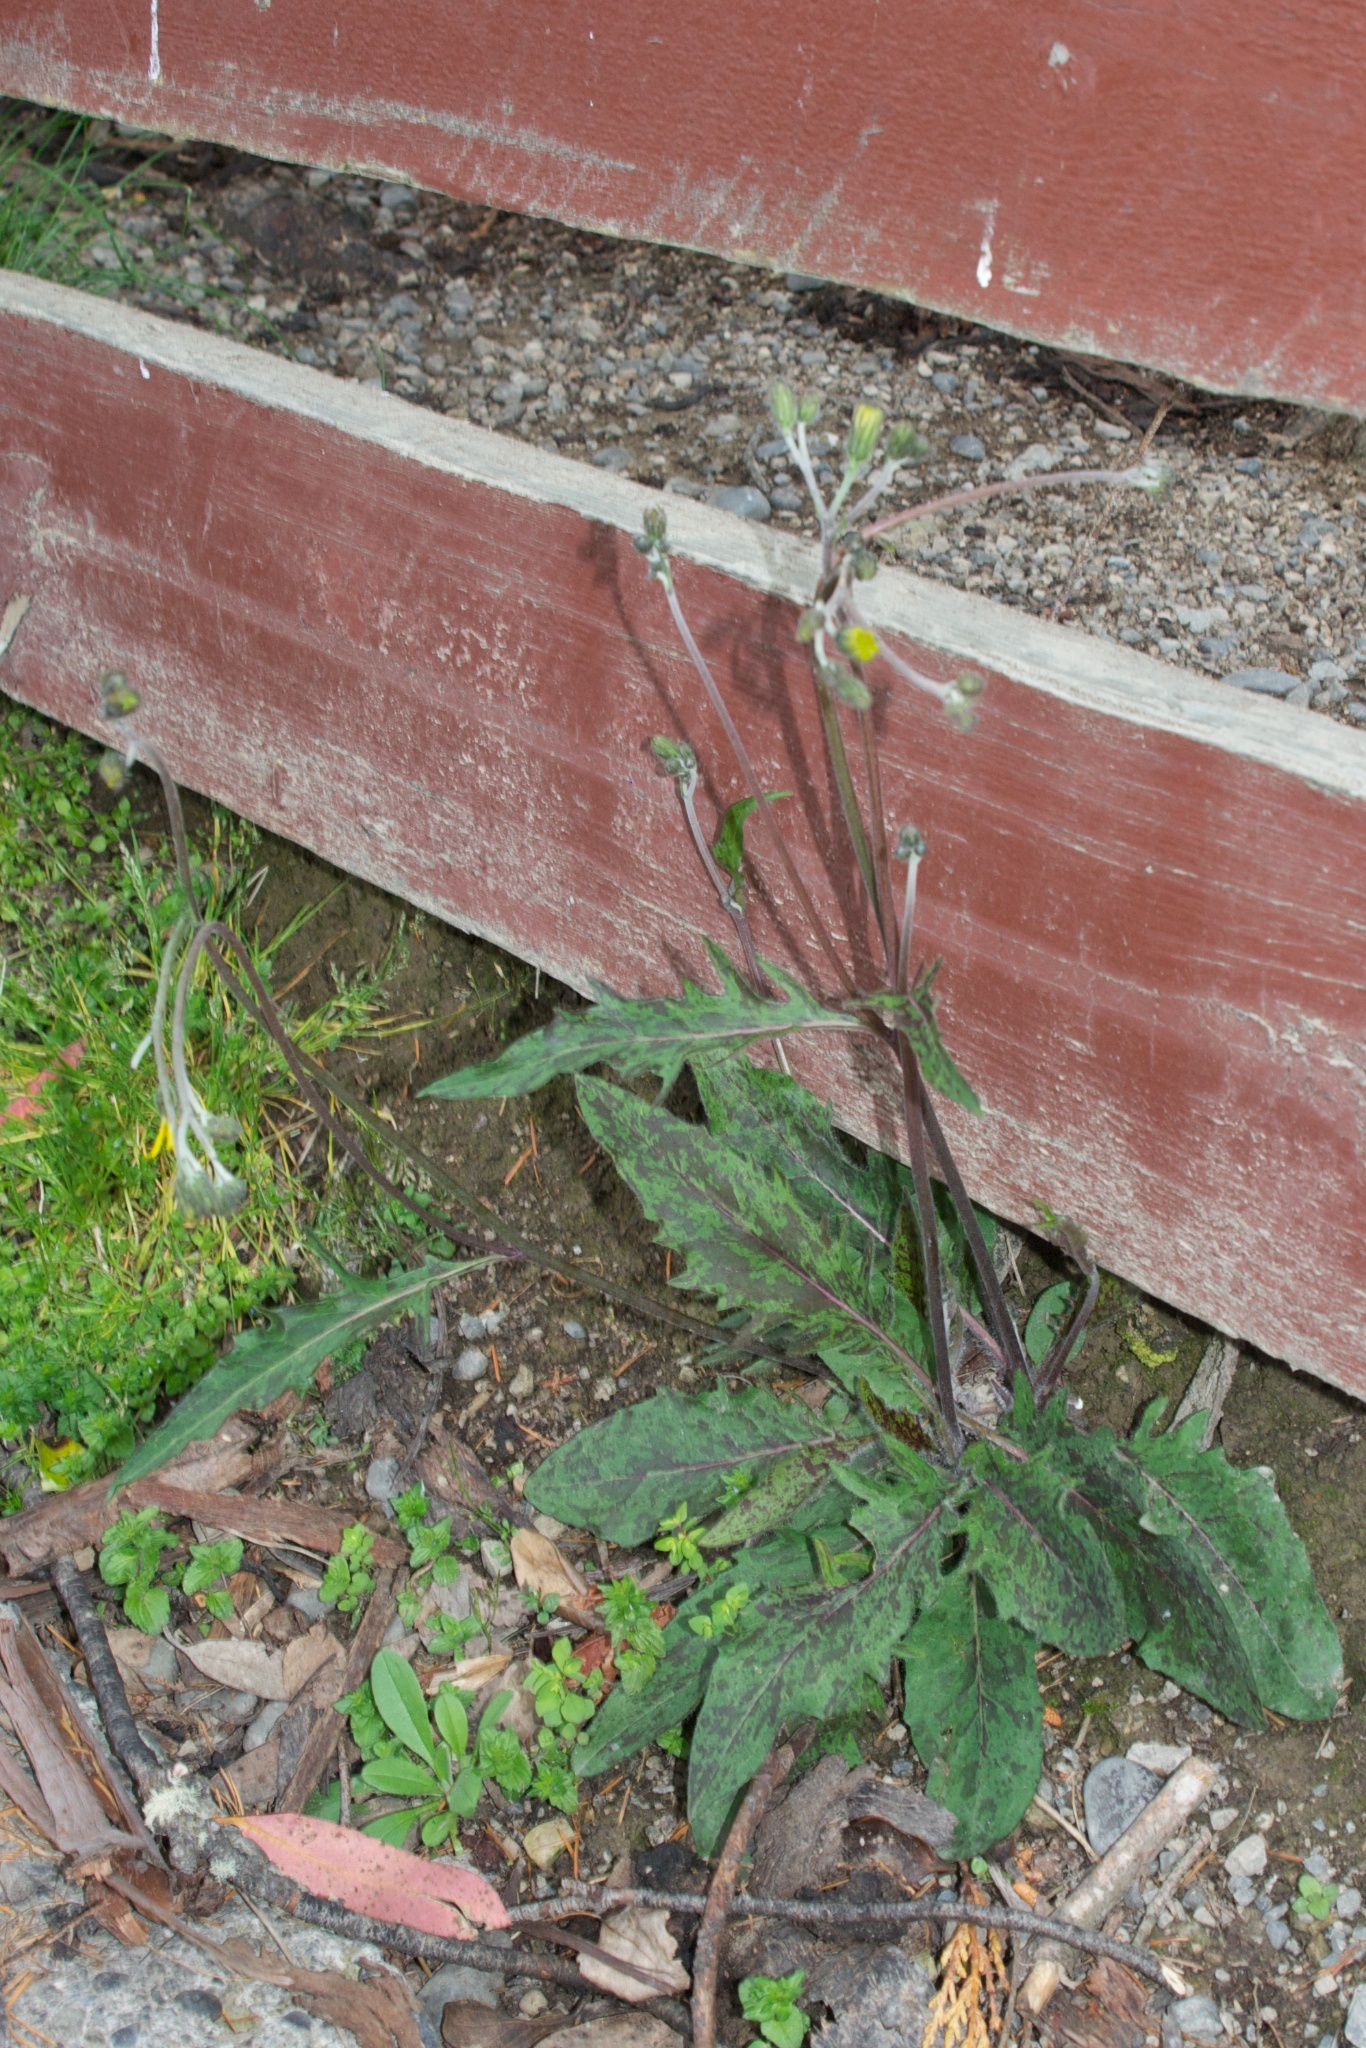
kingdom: Plantae
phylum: Tracheophyta
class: Magnoliopsida
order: Asterales
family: Asteraceae
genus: Hieracium
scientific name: Hieracium maculatum
